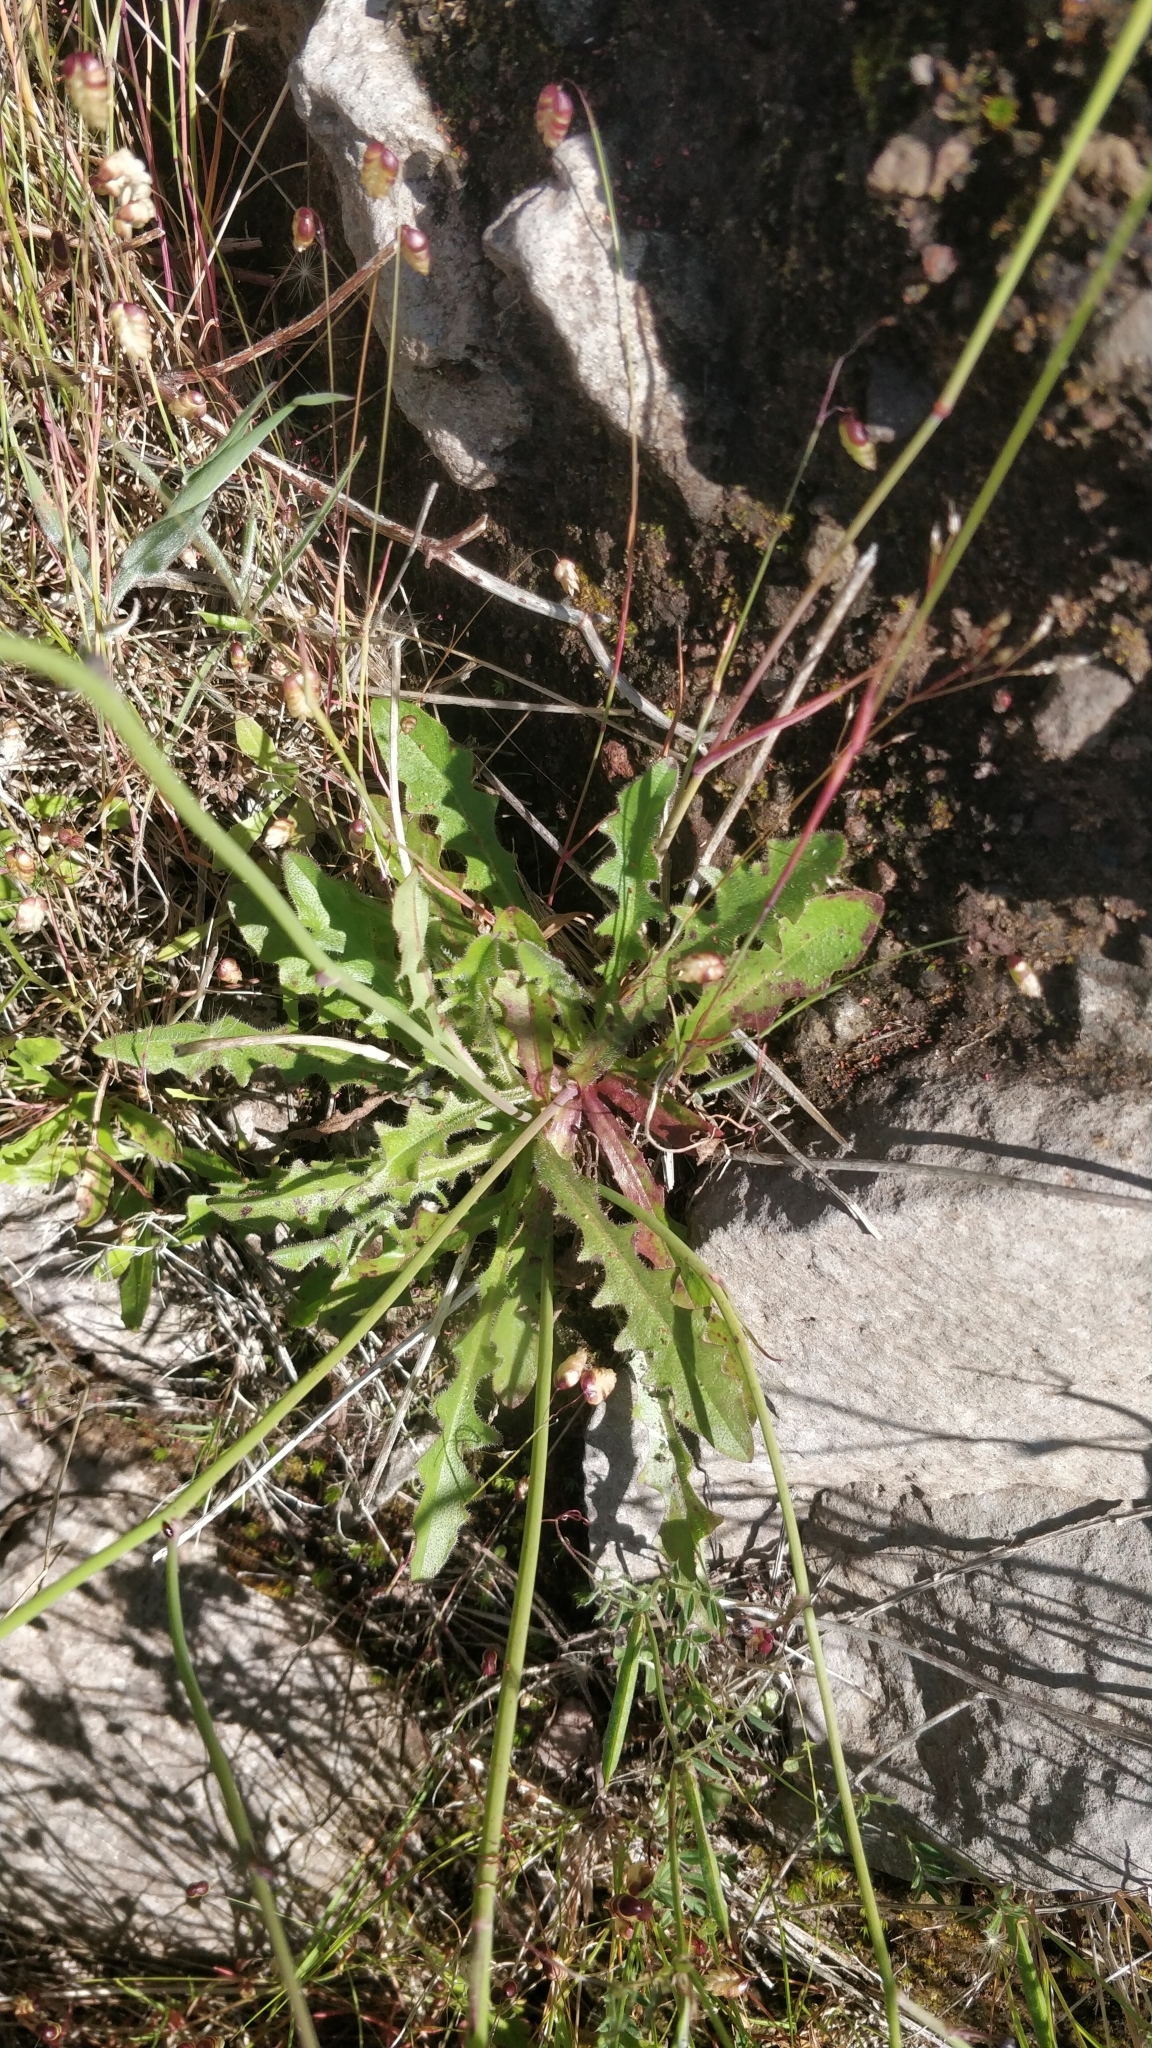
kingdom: Plantae
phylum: Tracheophyta
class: Magnoliopsida
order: Asterales
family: Asteraceae
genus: Hypochaeris
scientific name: Hypochaeris radicata
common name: Flatweed
